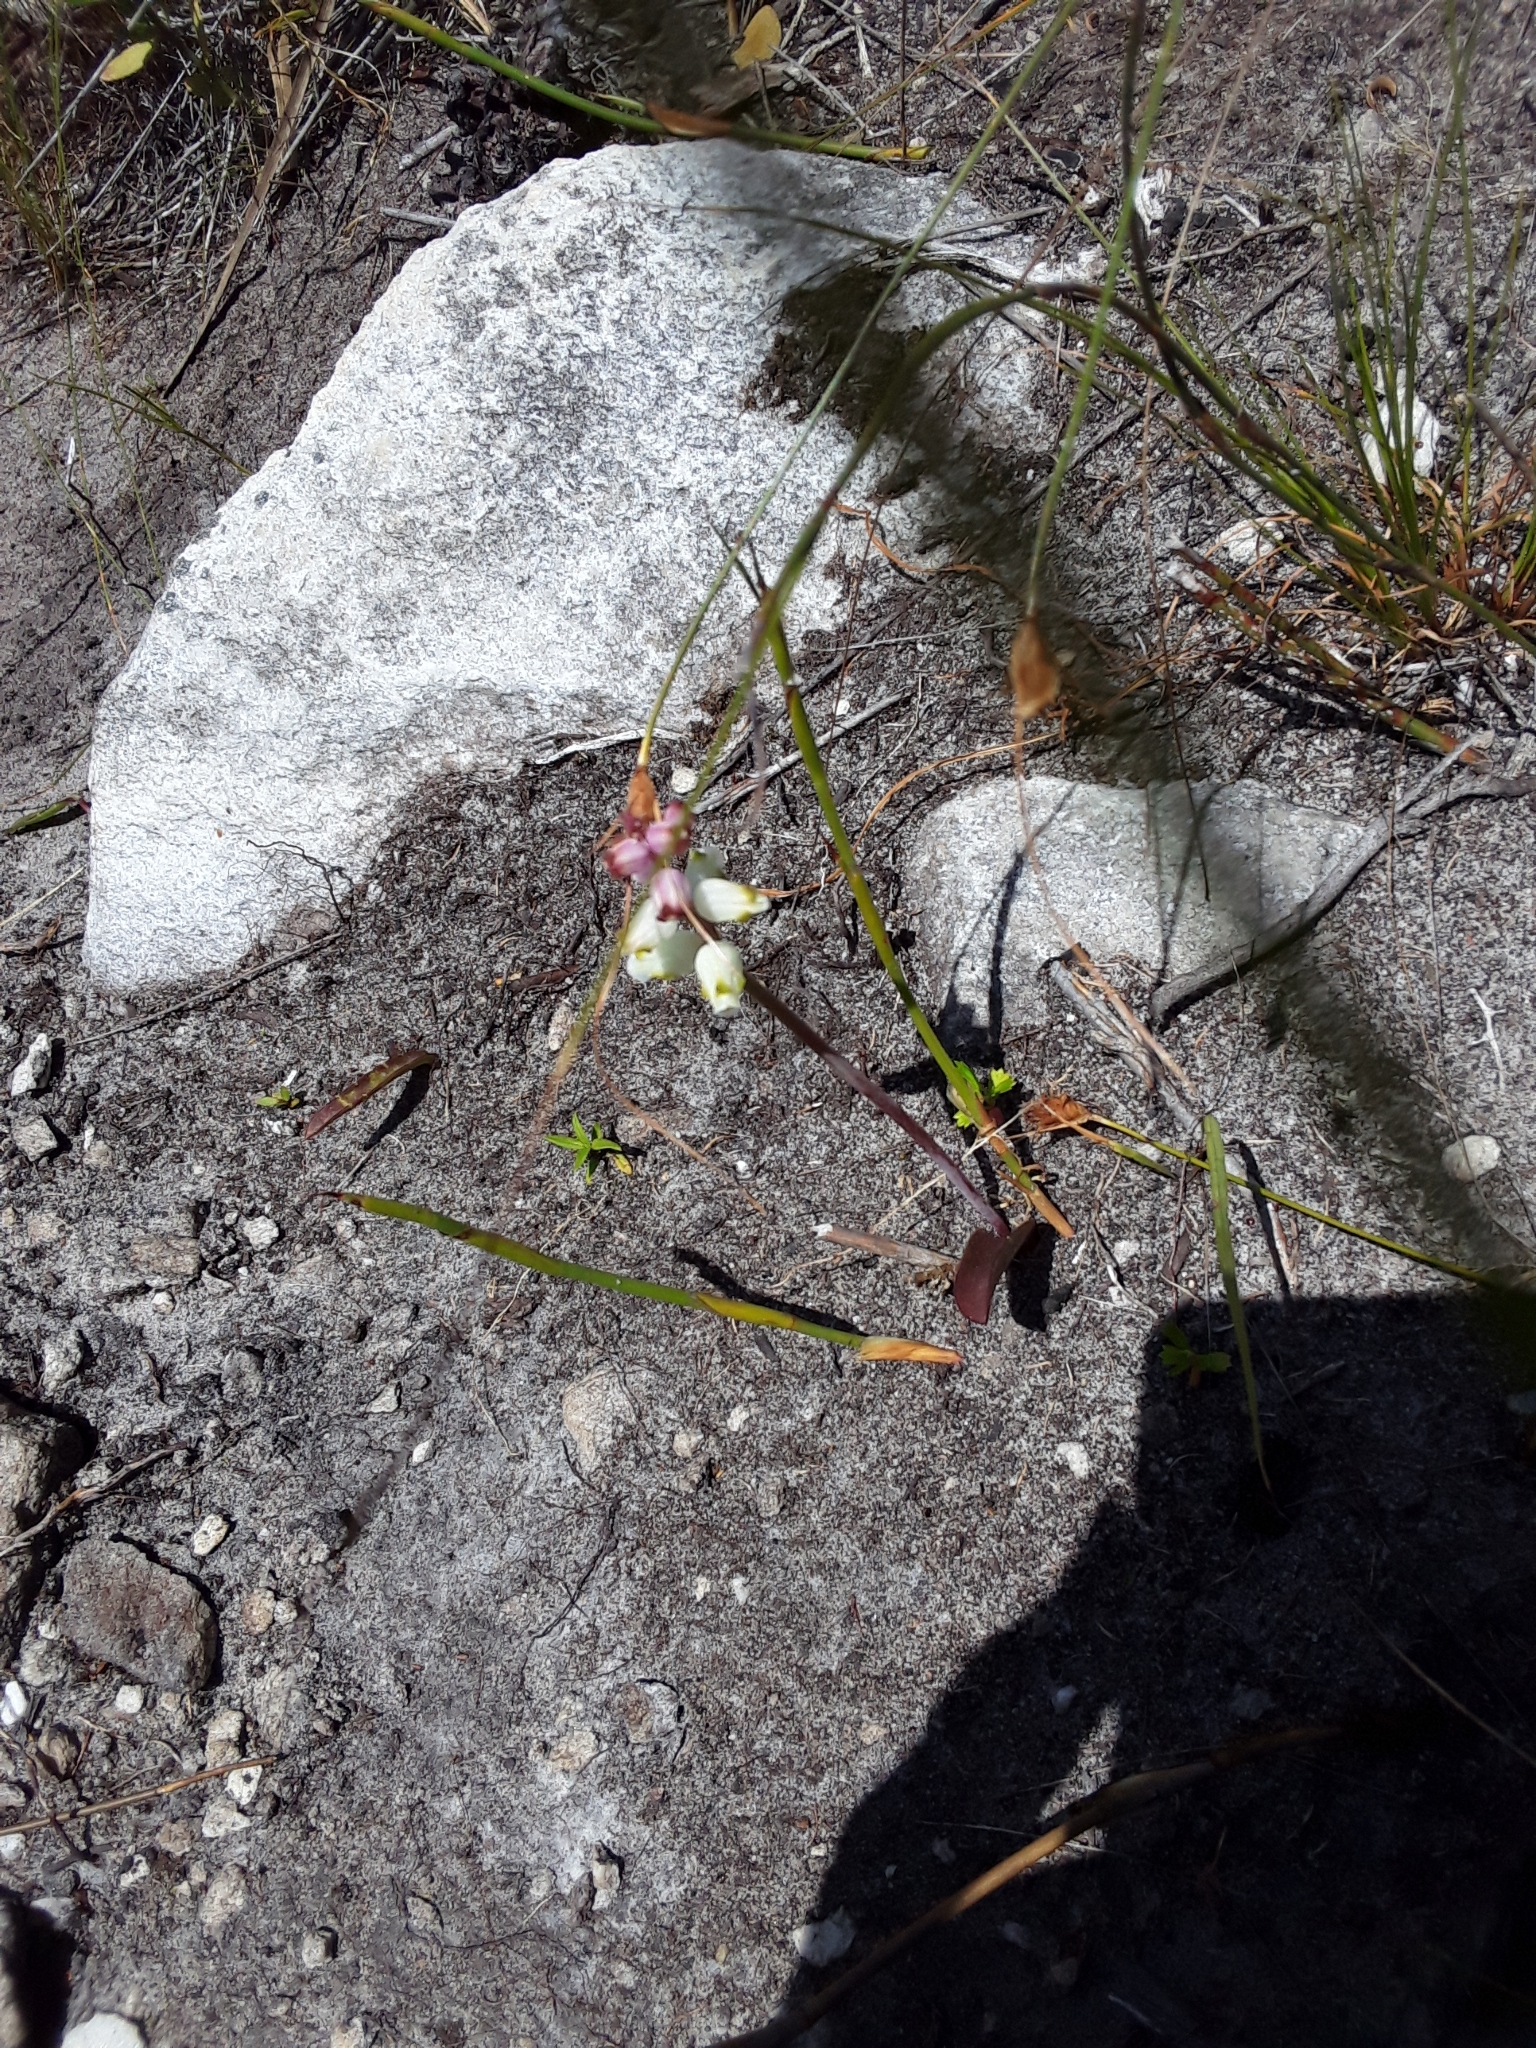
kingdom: Plantae
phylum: Tracheophyta
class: Liliopsida
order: Asparagales
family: Asparagaceae
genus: Lachenalia
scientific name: Lachenalia peersii
